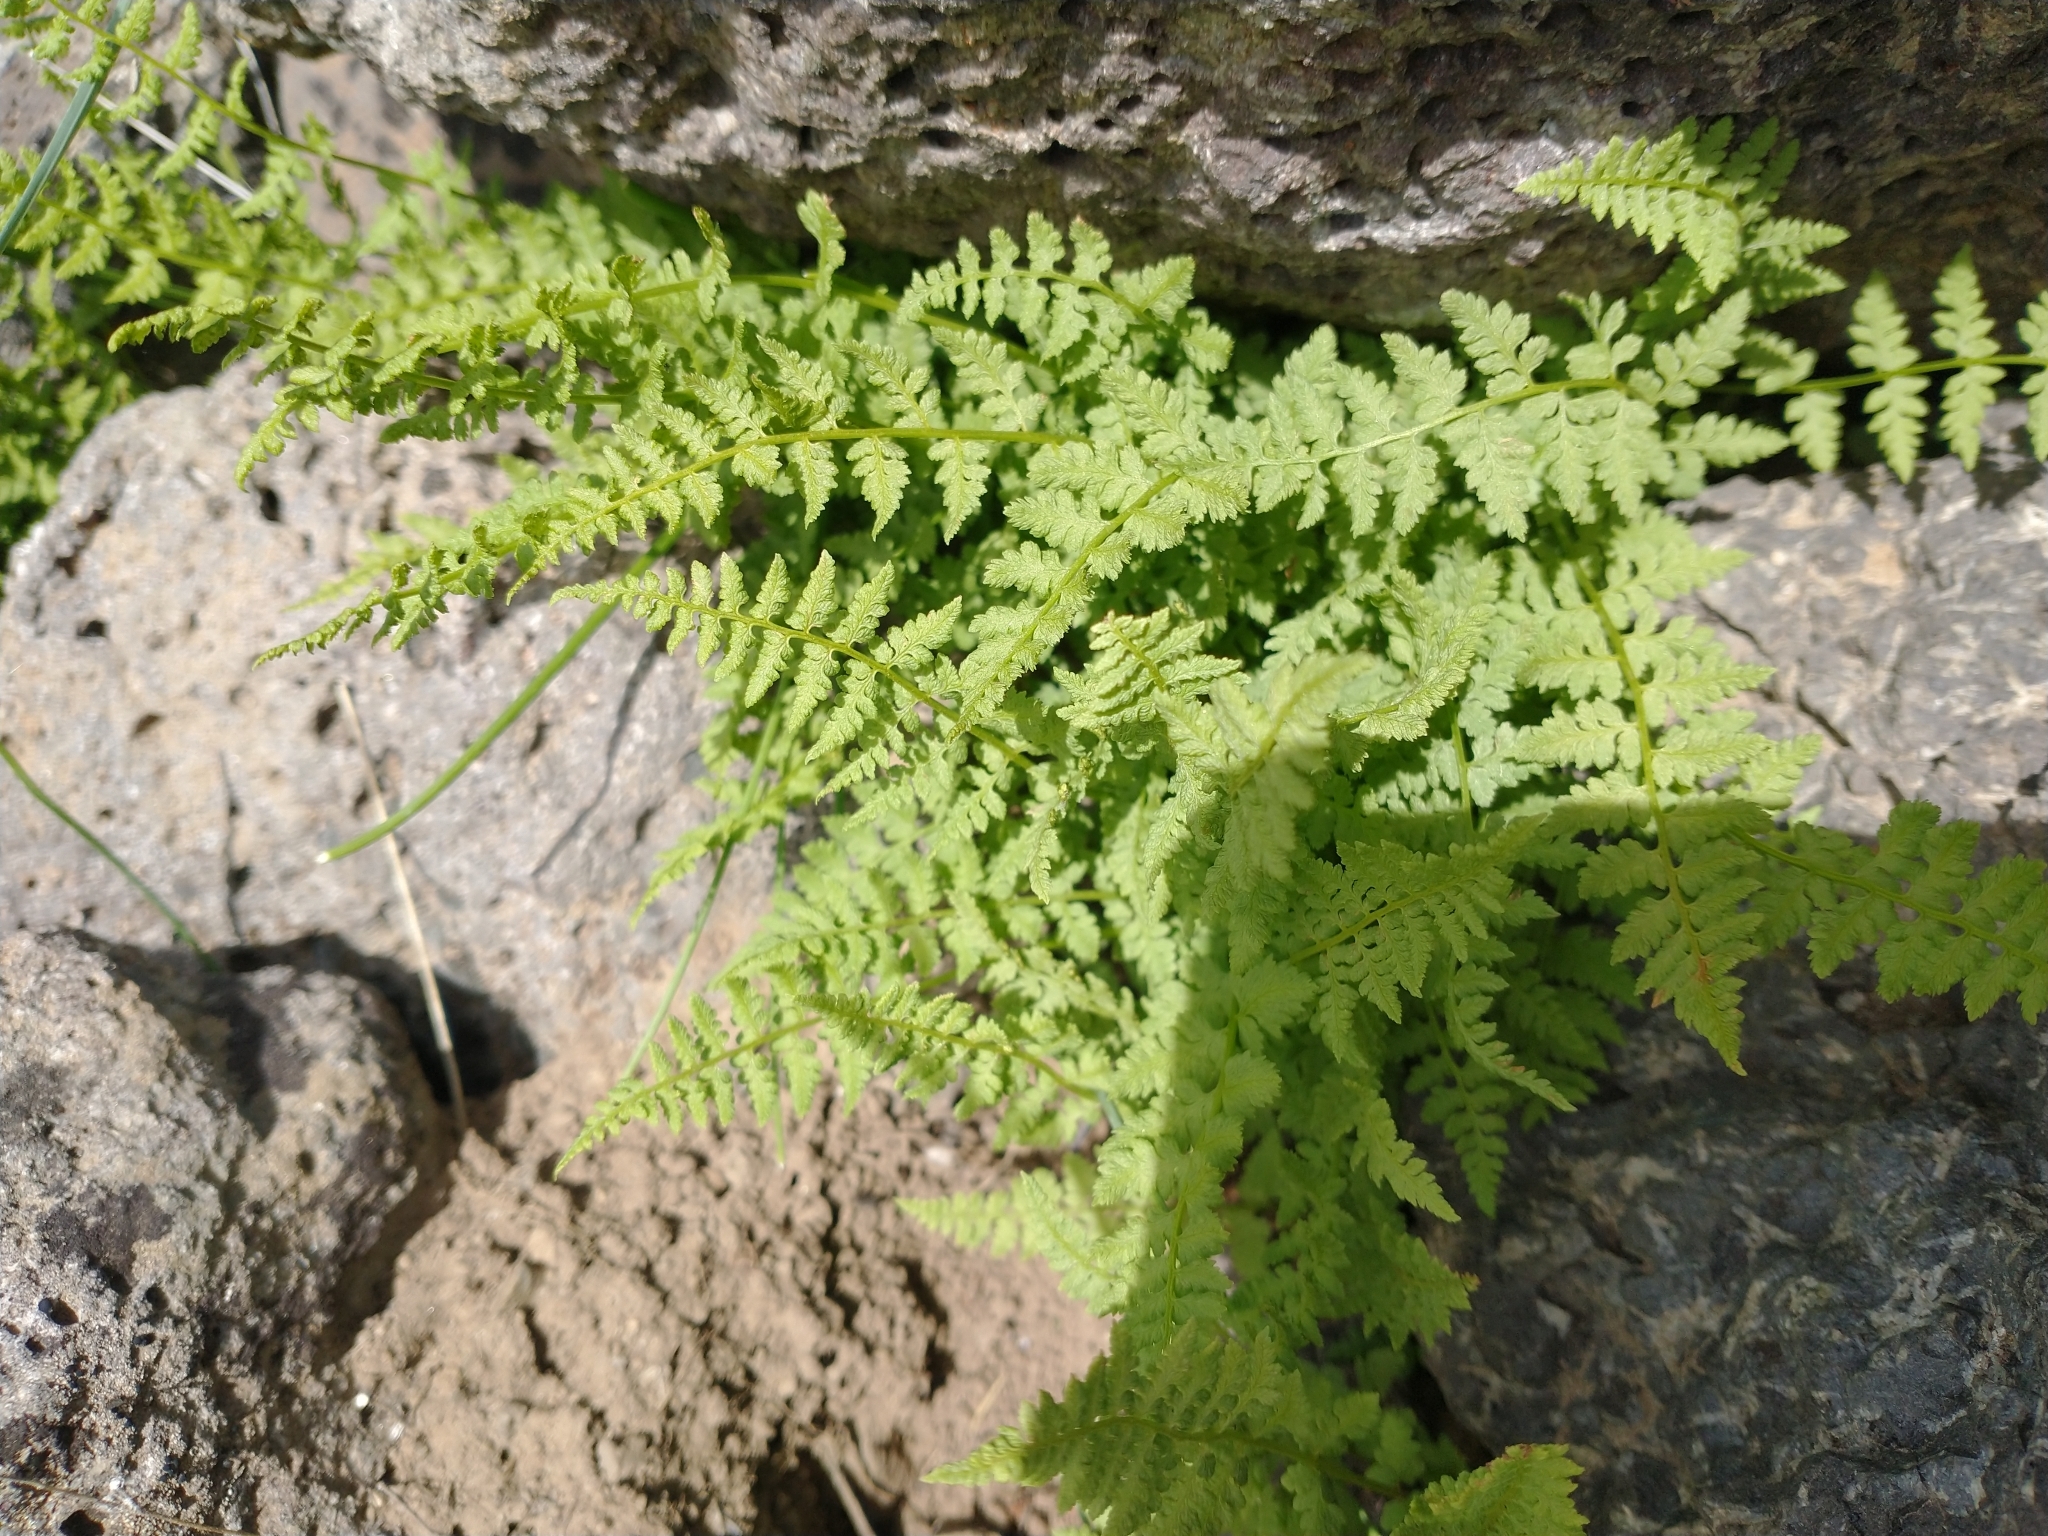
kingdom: Plantae
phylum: Tracheophyta
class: Polypodiopsida
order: Polypodiales
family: Woodsiaceae
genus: Physematium
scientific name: Physematium oreganum
